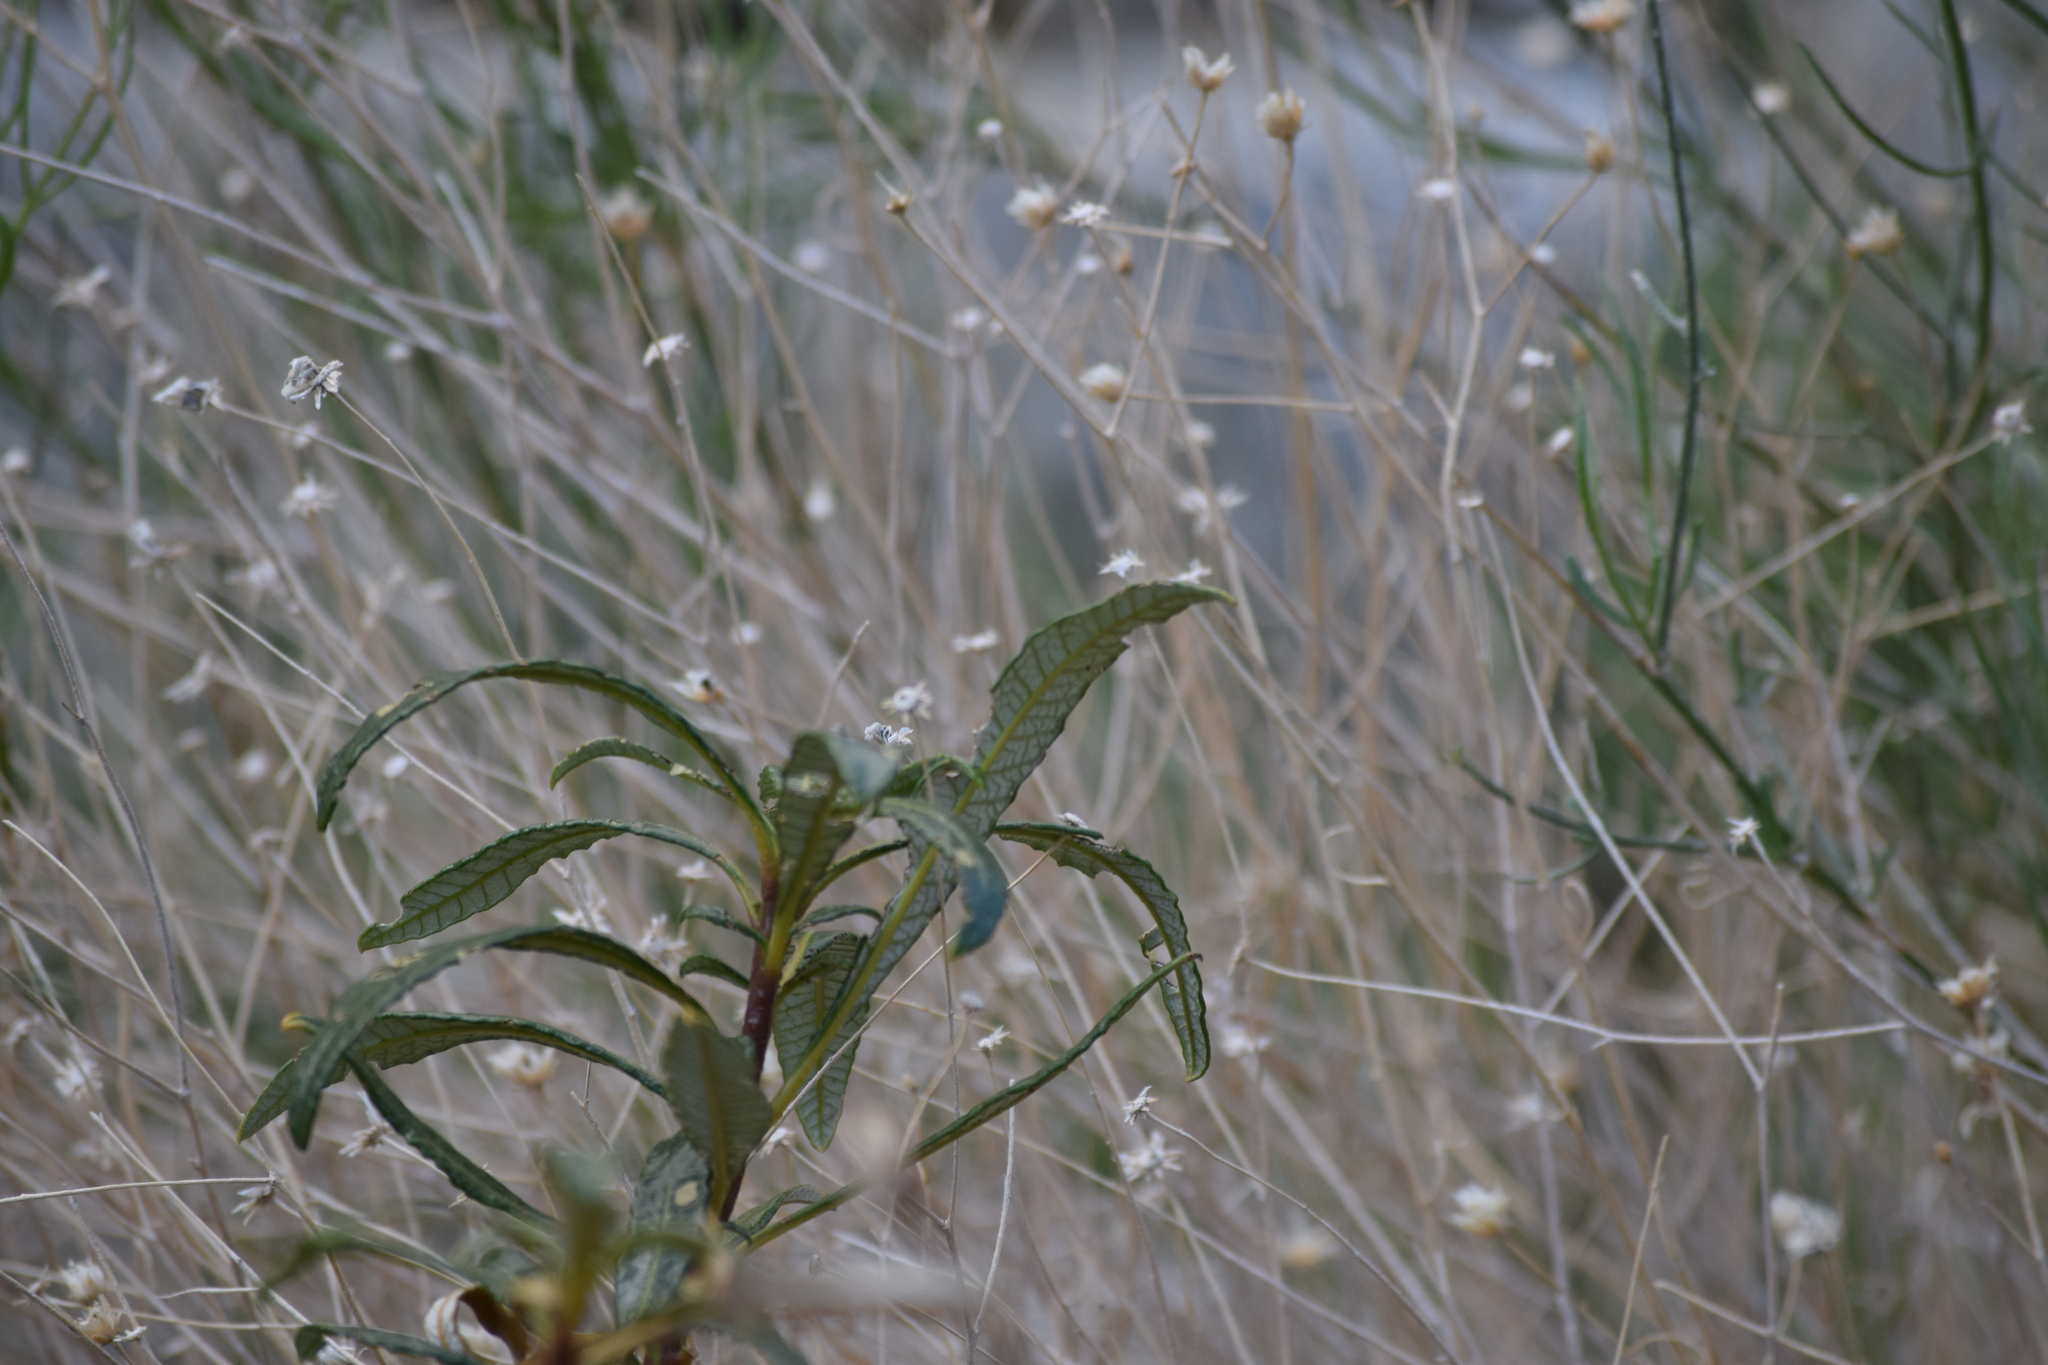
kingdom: Plantae
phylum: Tracheophyta
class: Magnoliopsida
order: Boraginales
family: Namaceae
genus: Eriodictyon
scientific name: Eriodictyon trichocalyx
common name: Hairy yerba-santa
